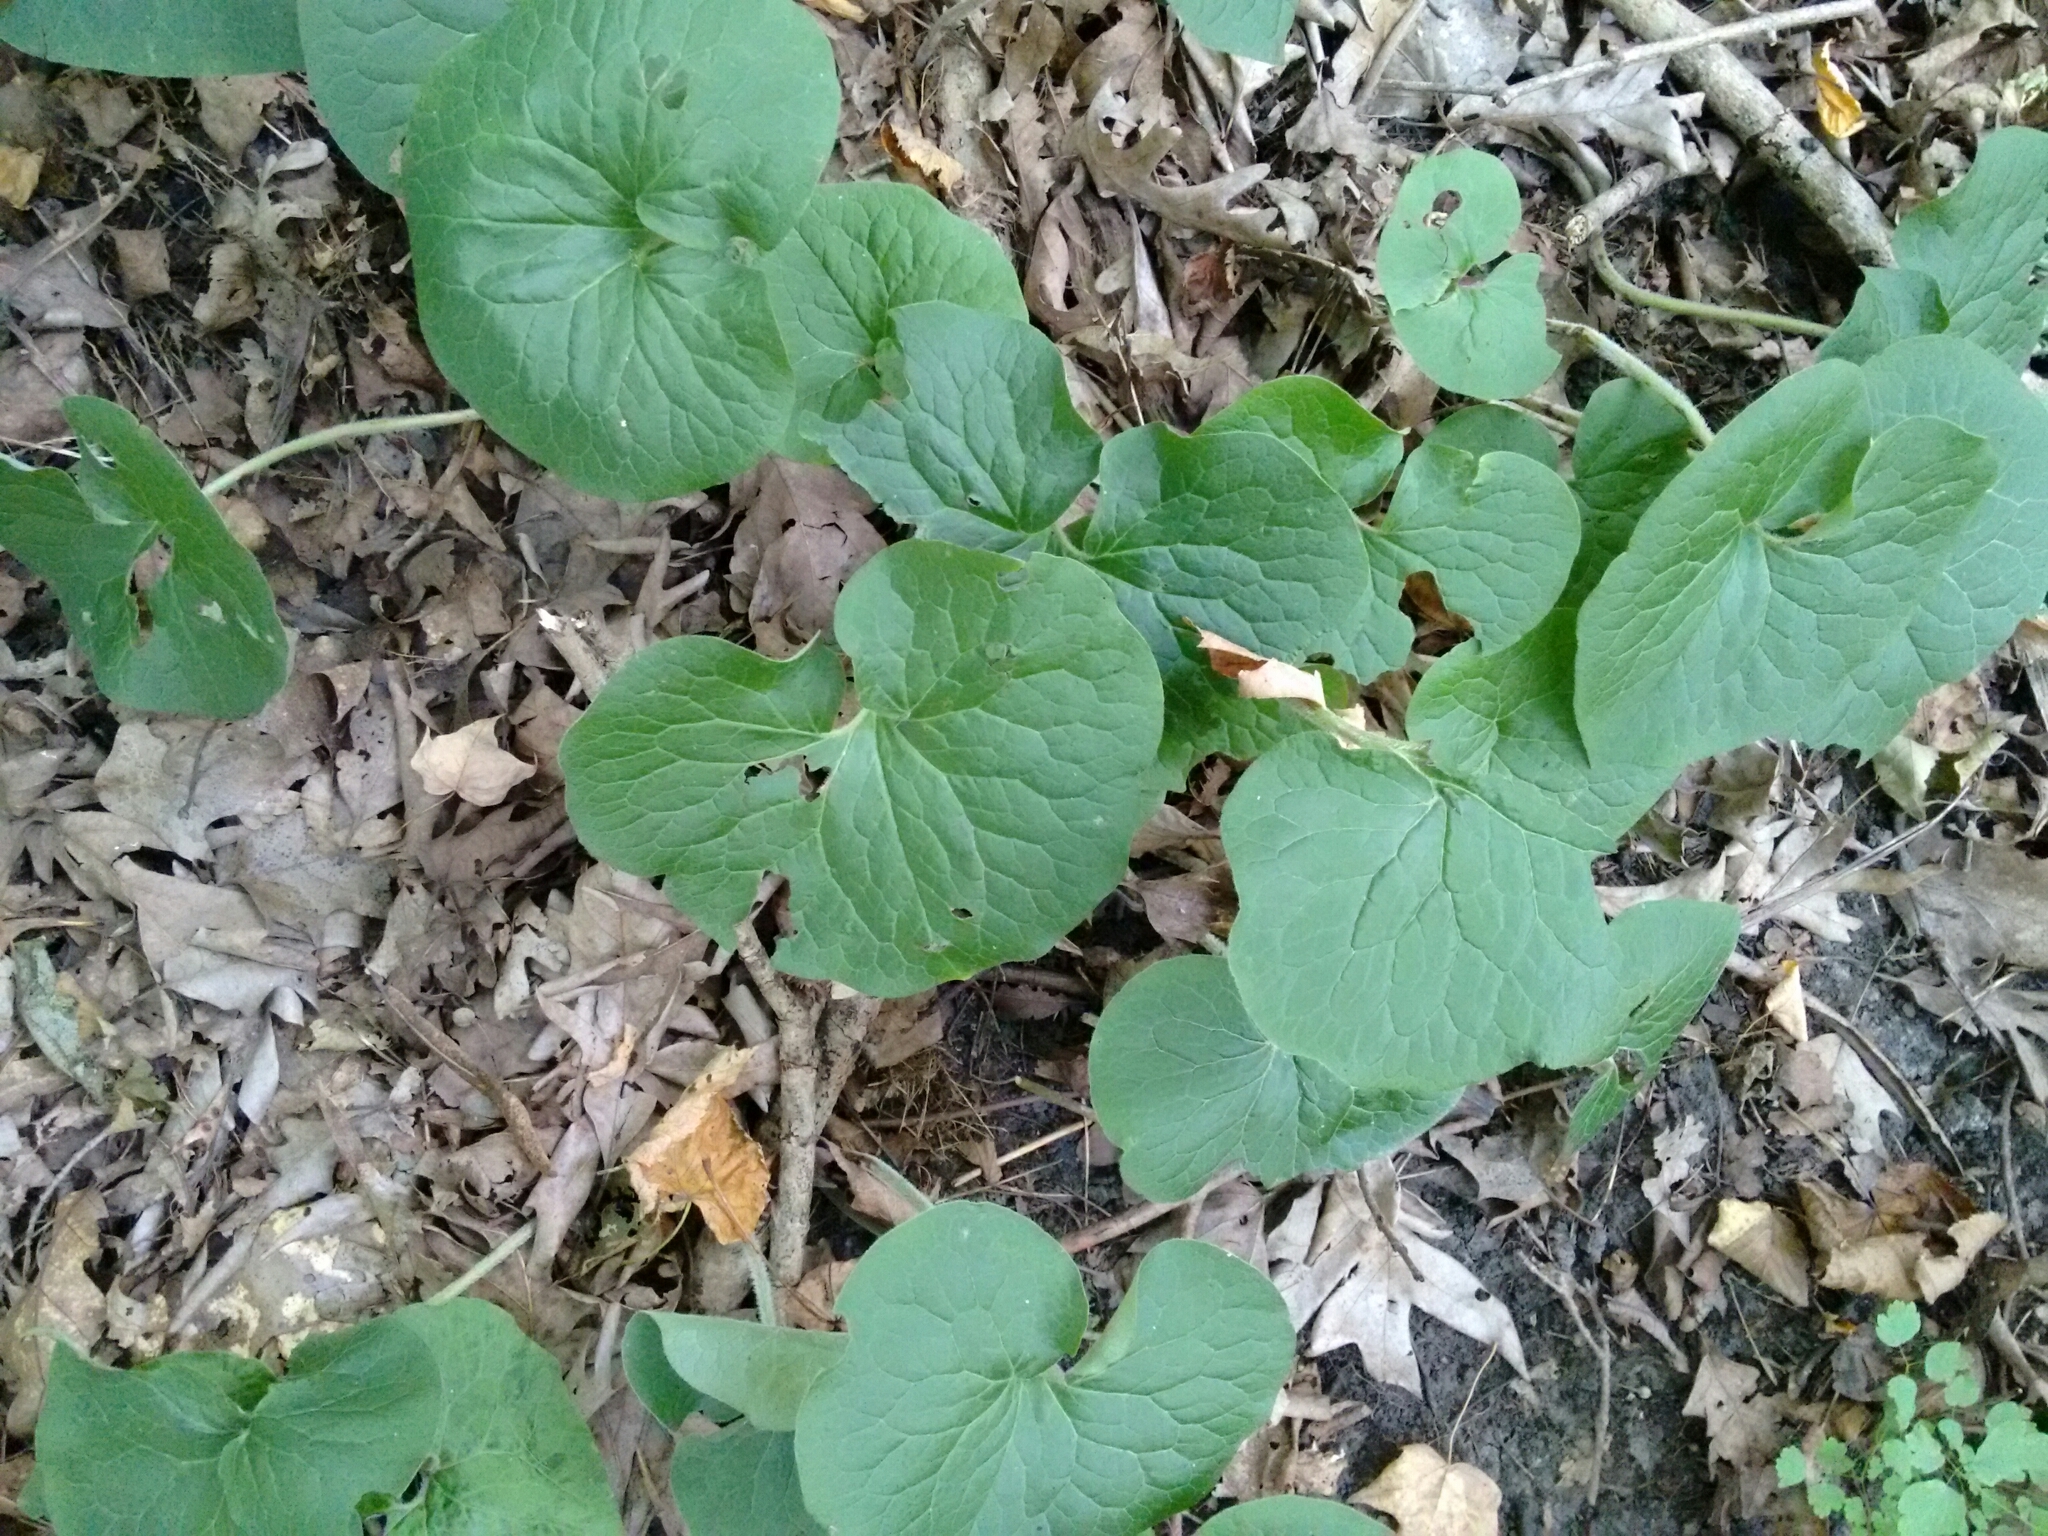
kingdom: Plantae
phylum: Tracheophyta
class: Magnoliopsida
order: Piperales
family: Aristolochiaceae
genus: Asarum
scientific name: Asarum canadense
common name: Wild ginger
